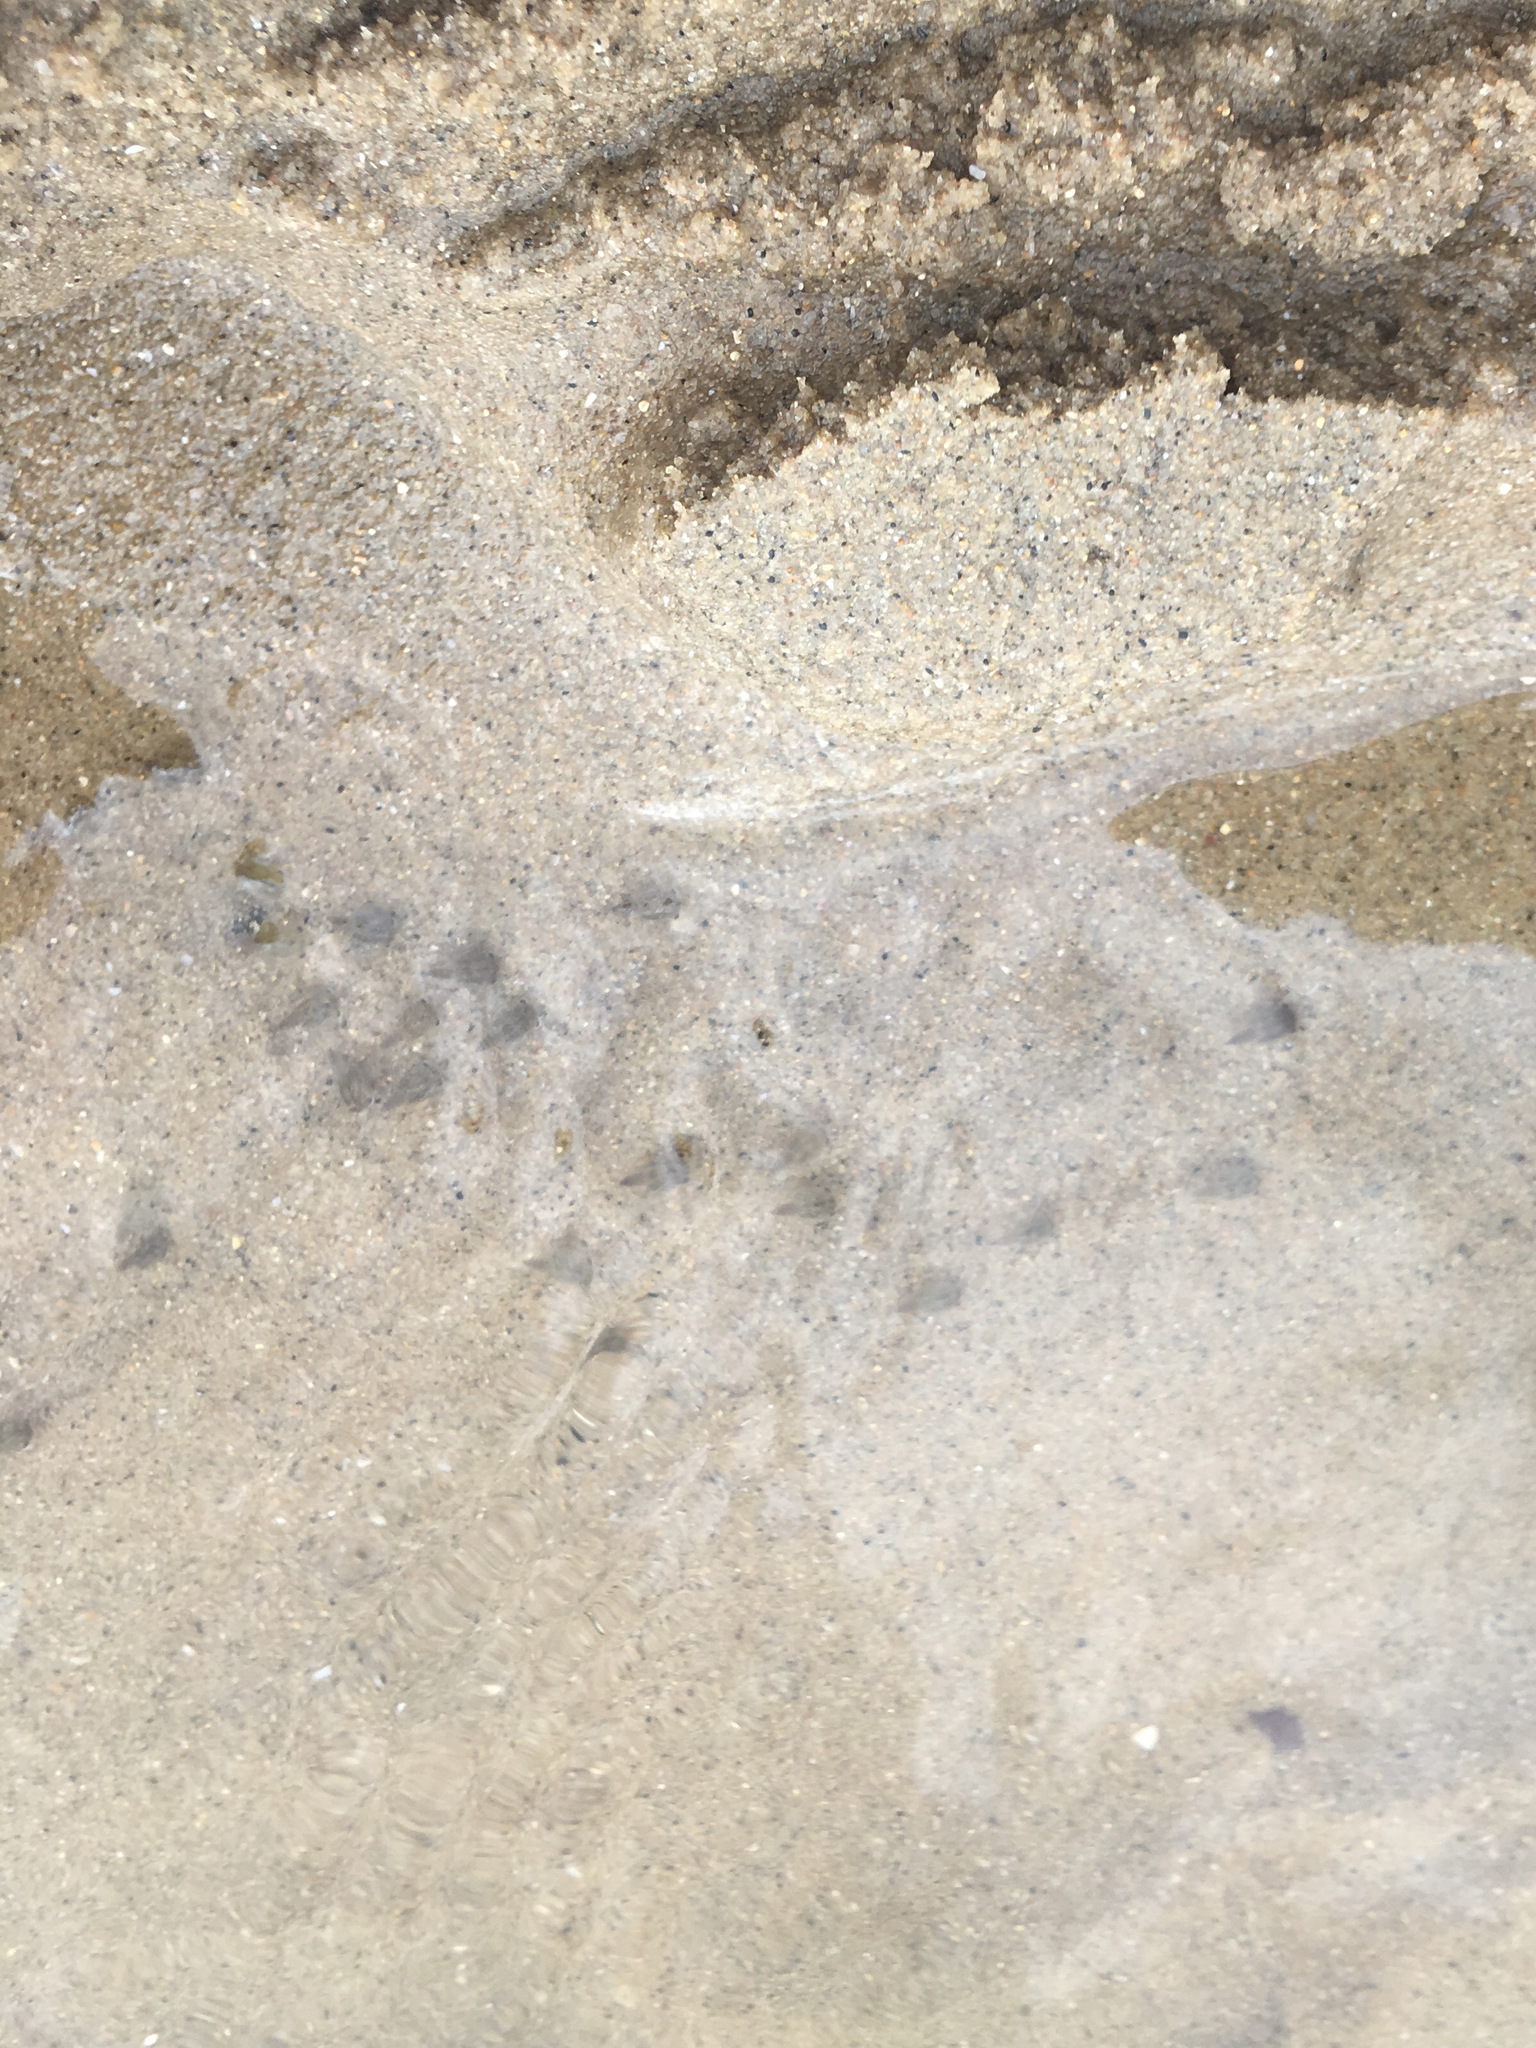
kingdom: Animalia
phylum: Arthropoda
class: Malacostraca
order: Decapoda
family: Varunidae
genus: Varuna
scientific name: Varuna litterata
